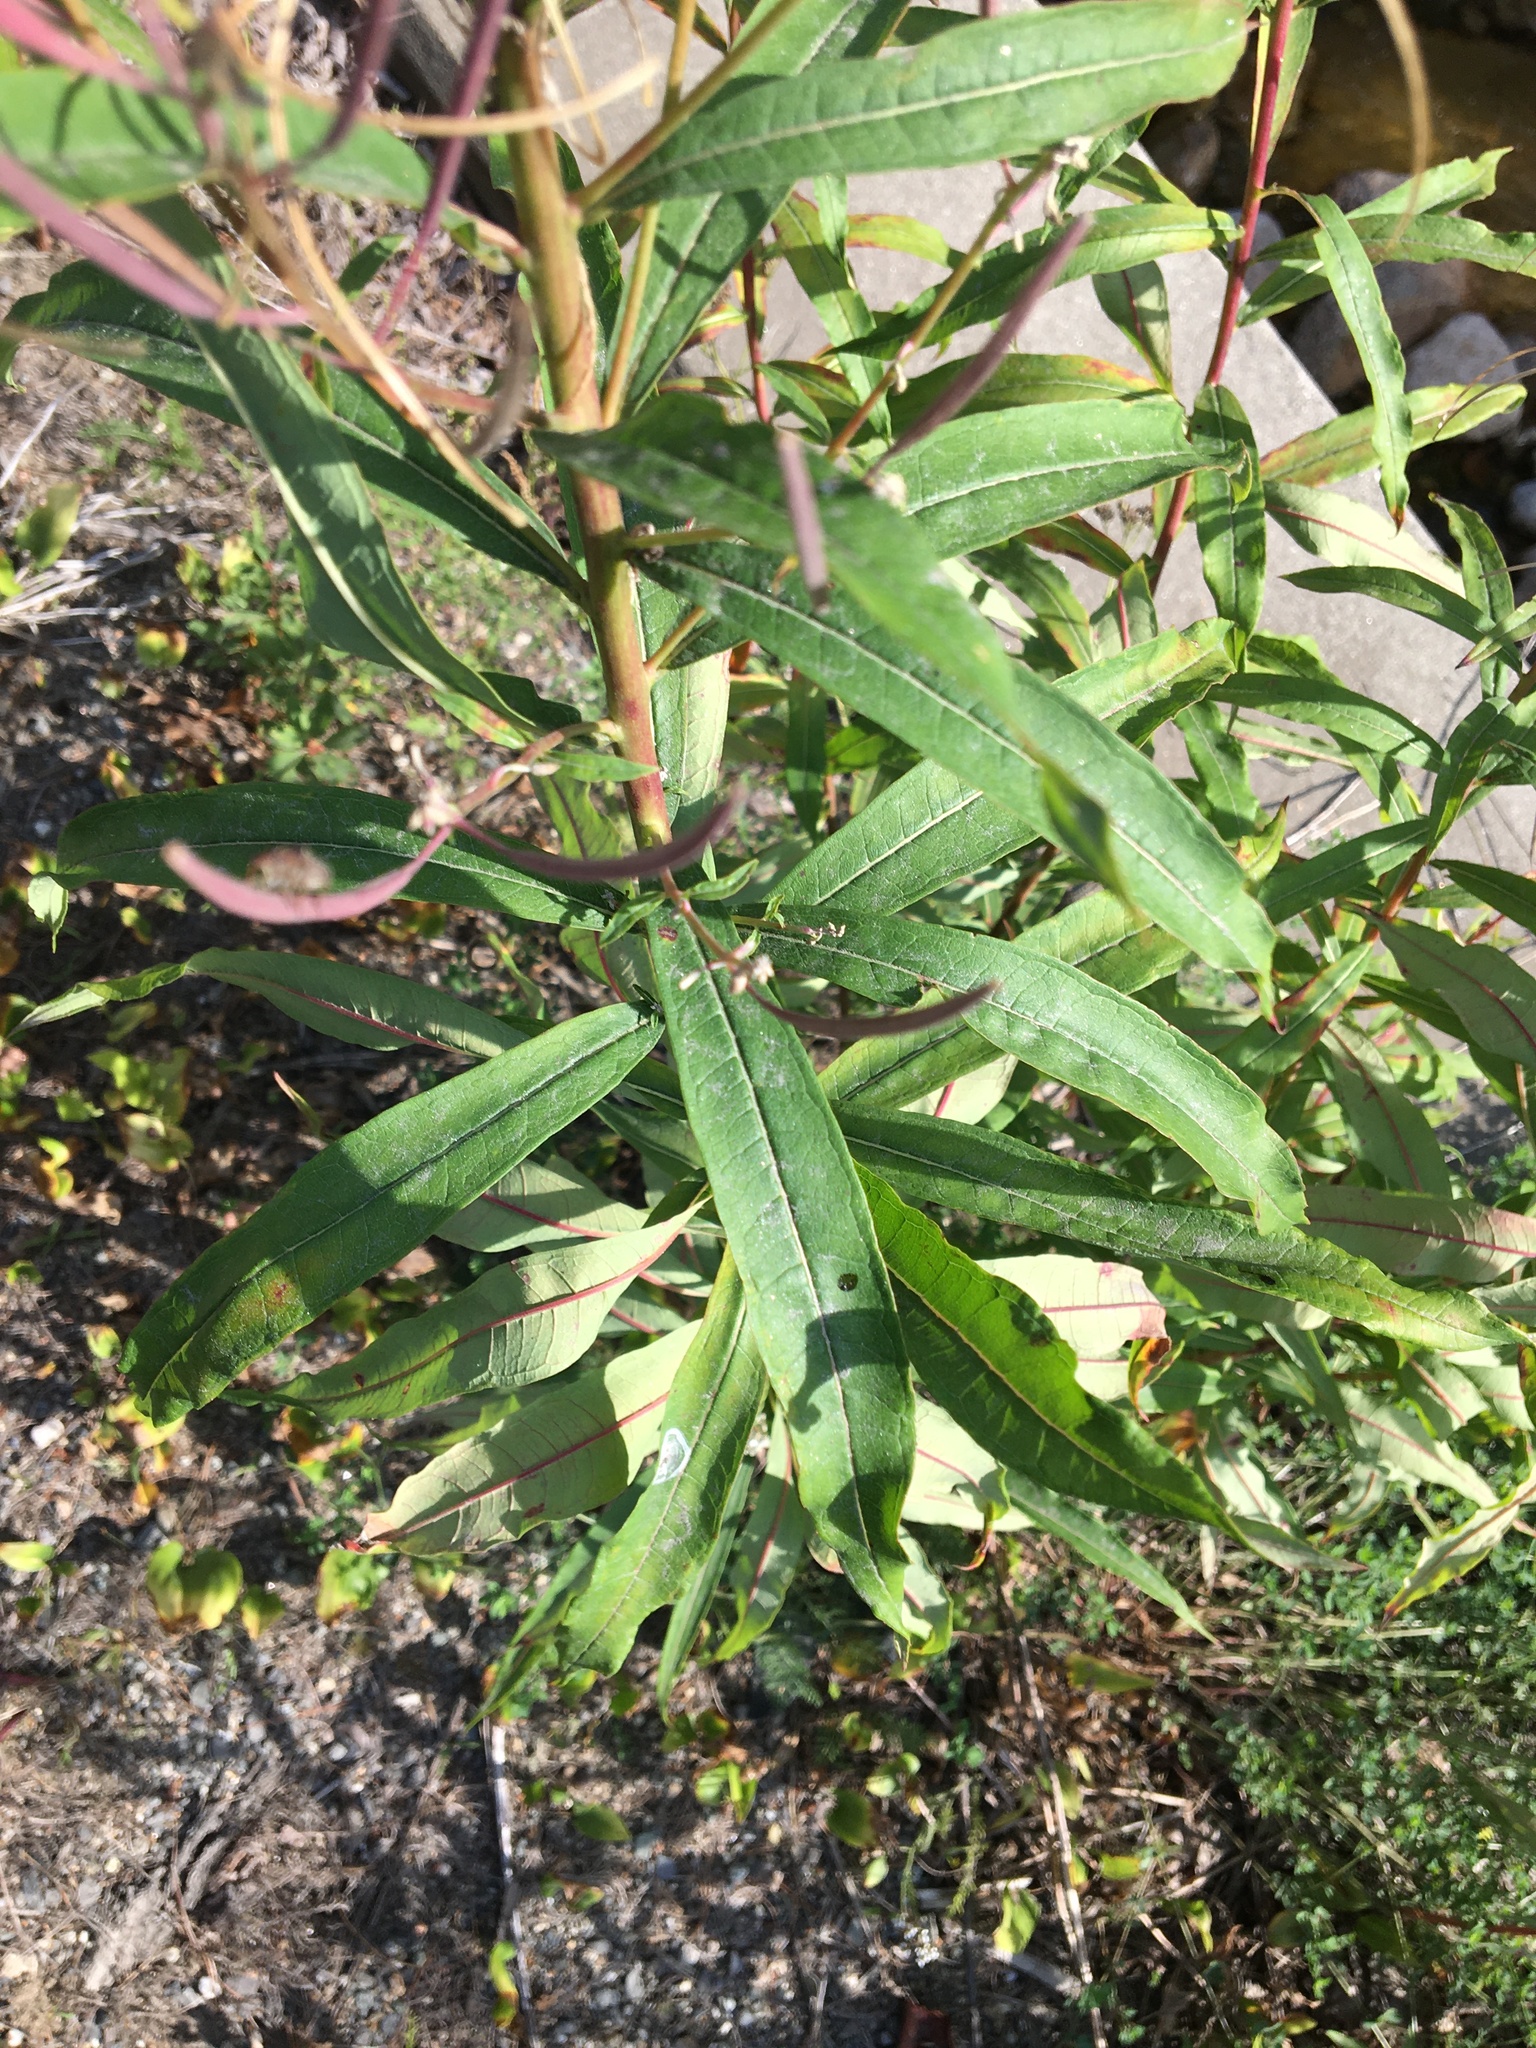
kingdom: Plantae
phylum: Tracheophyta
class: Magnoliopsida
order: Myrtales
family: Onagraceae
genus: Chamaenerion
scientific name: Chamaenerion angustifolium
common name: Fireweed
